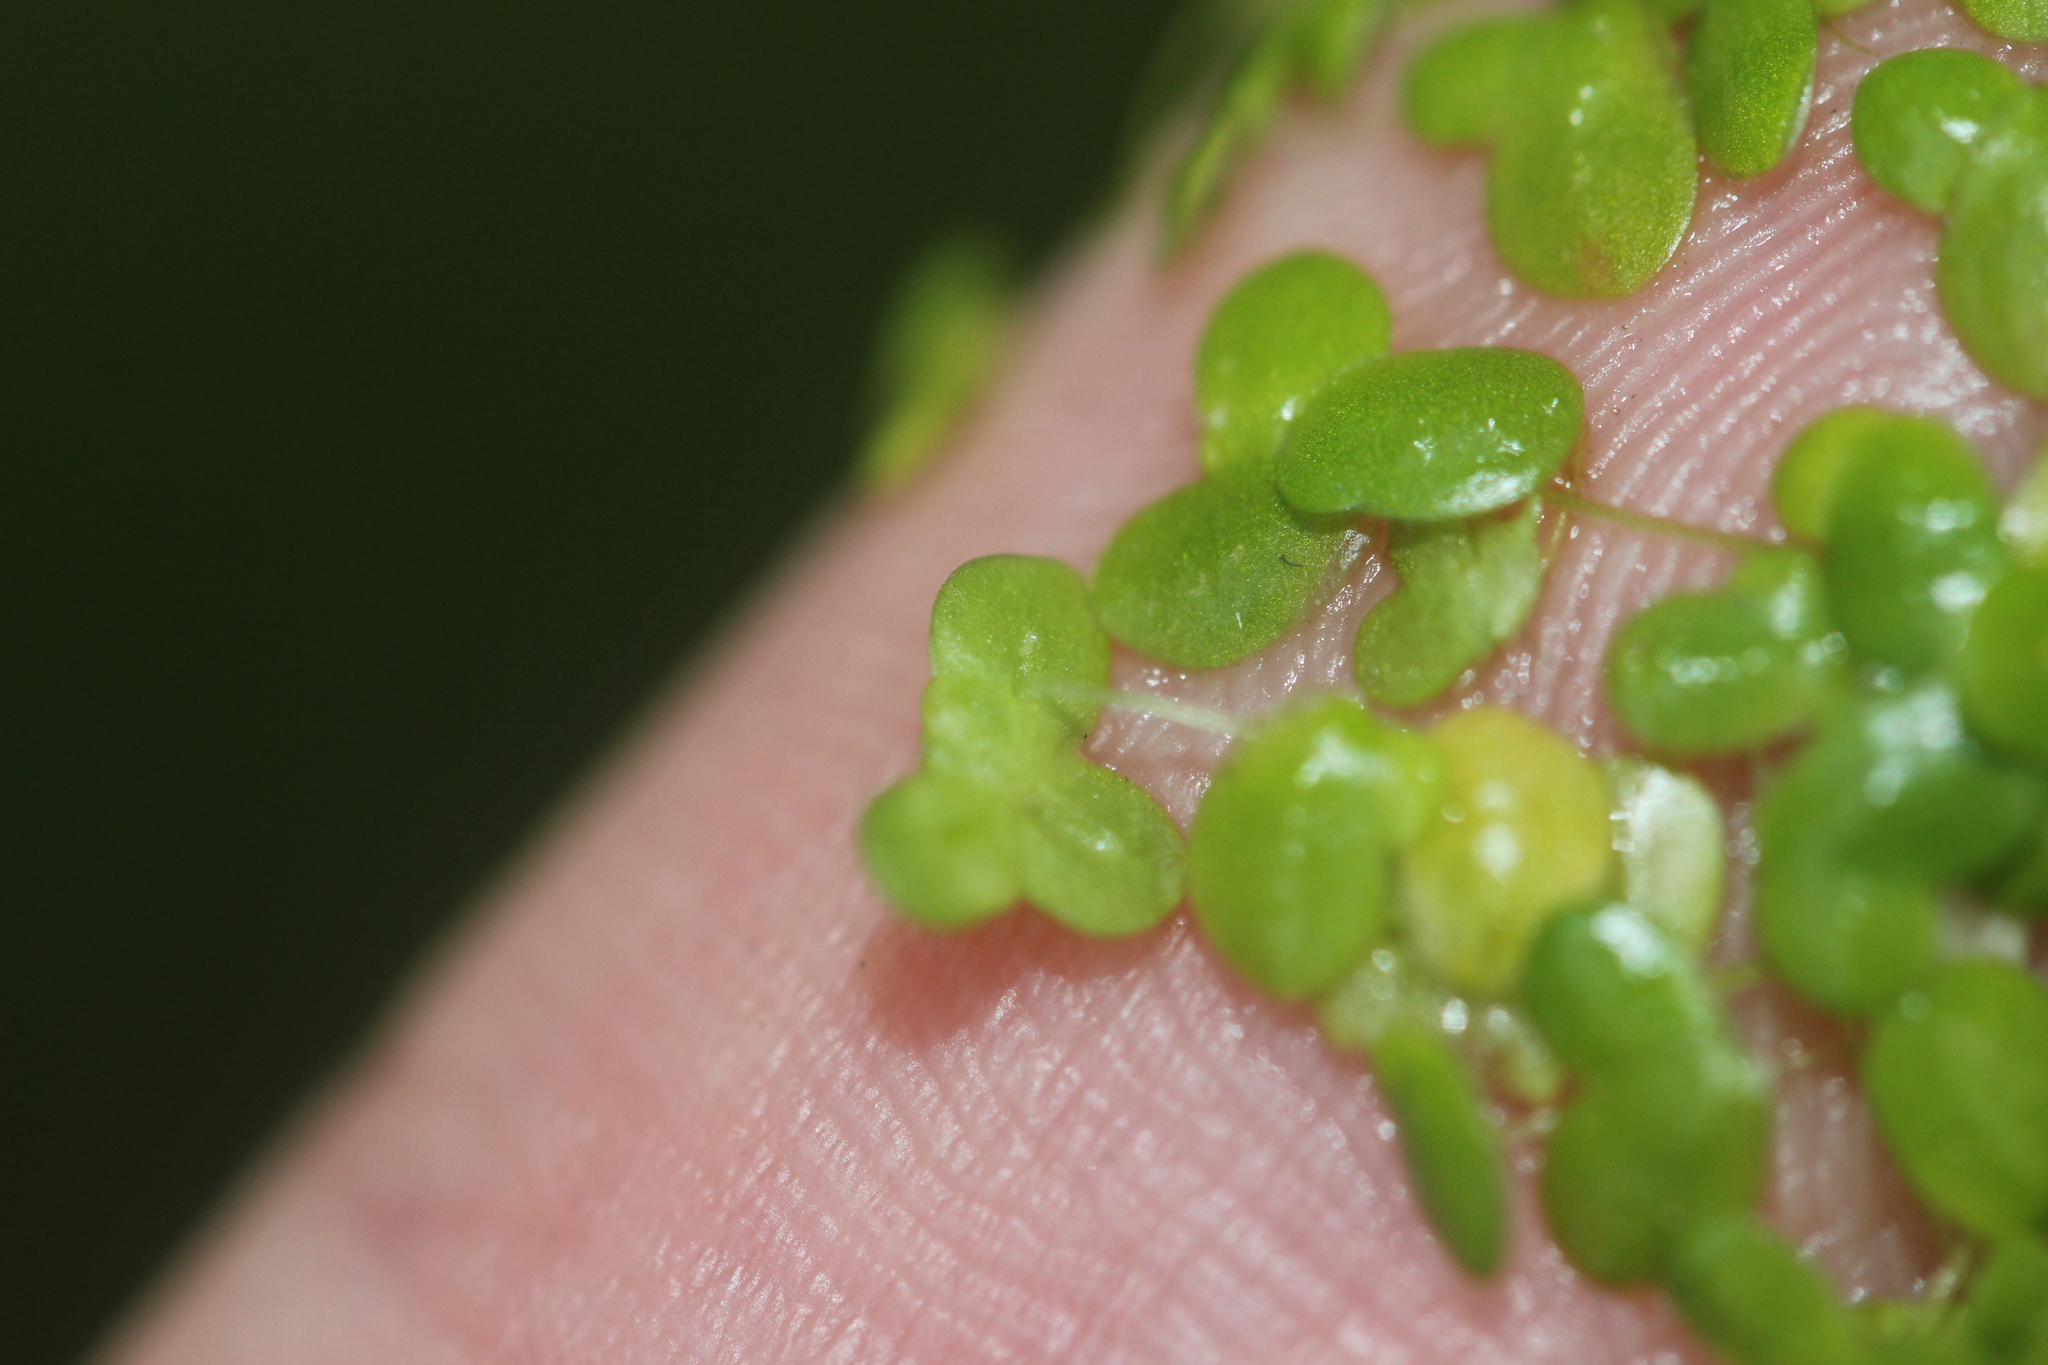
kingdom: Plantae
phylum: Tracheophyta
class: Liliopsida
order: Alismatales
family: Araceae
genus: Lemna
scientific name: Lemna disperma
